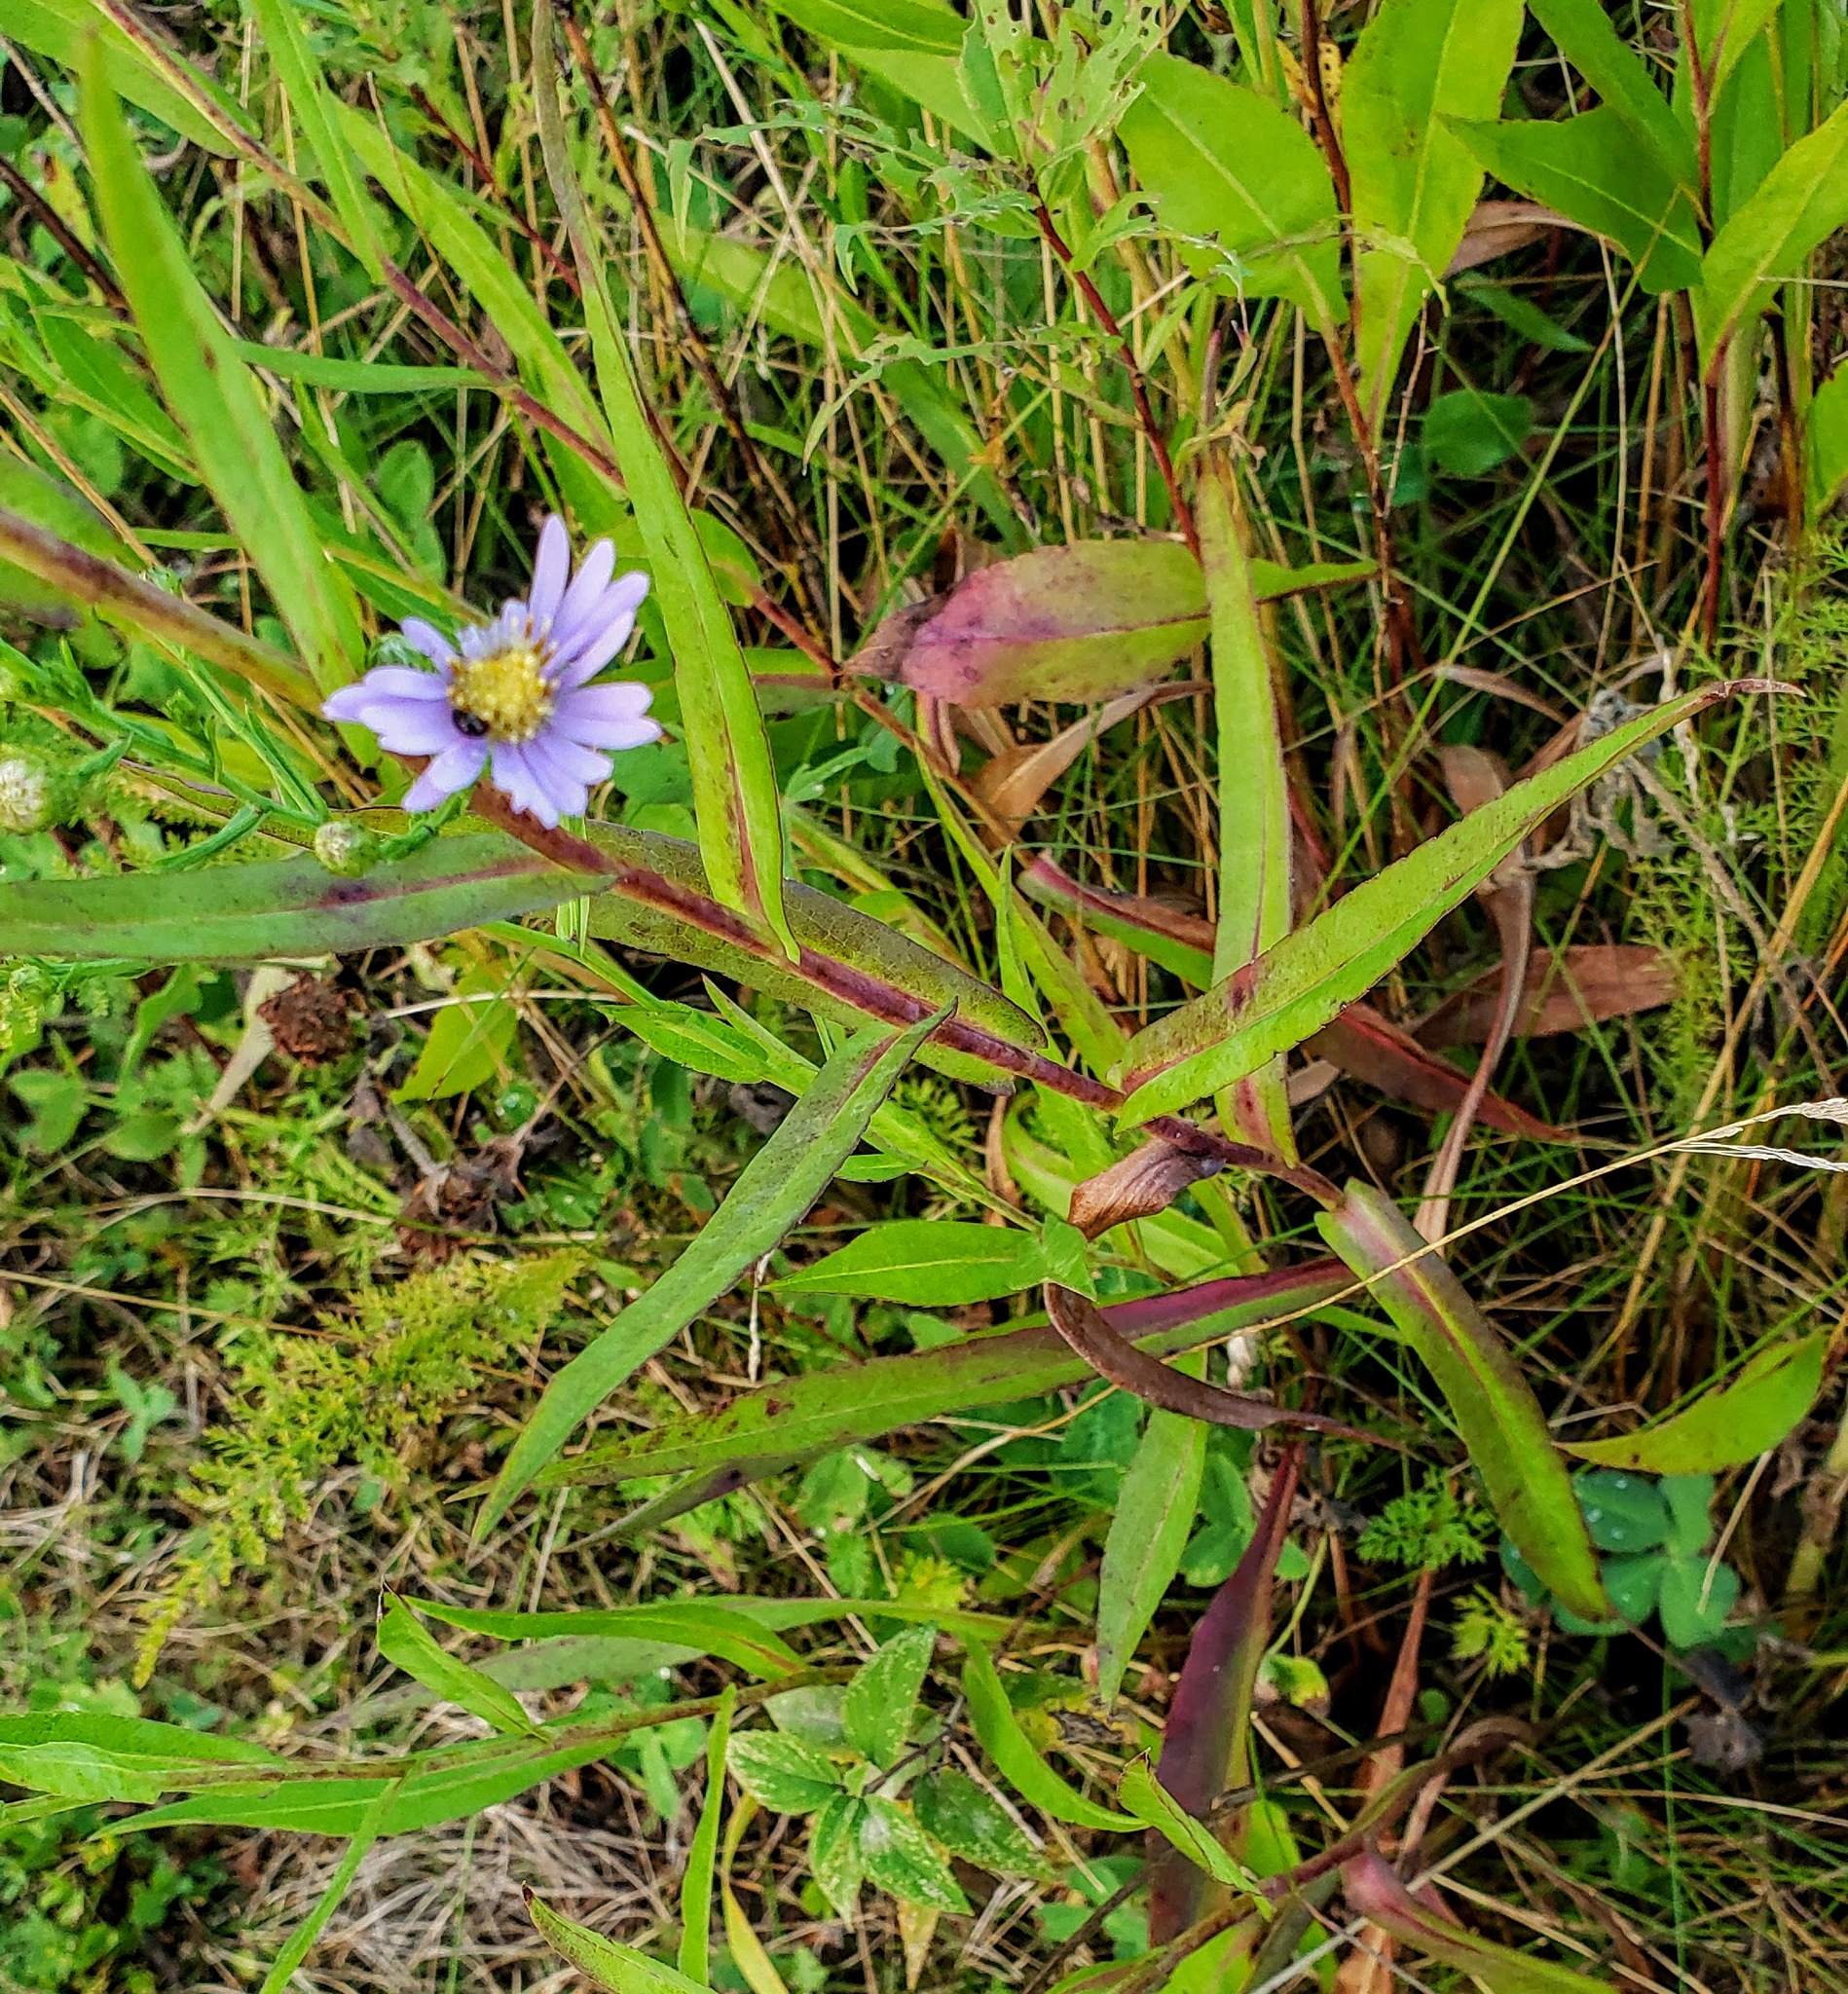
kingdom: Plantae
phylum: Tracheophyta
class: Magnoliopsida
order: Asterales
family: Asteraceae
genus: Symphyotrichum
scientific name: Symphyotrichum laeve
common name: Glaucous aster
